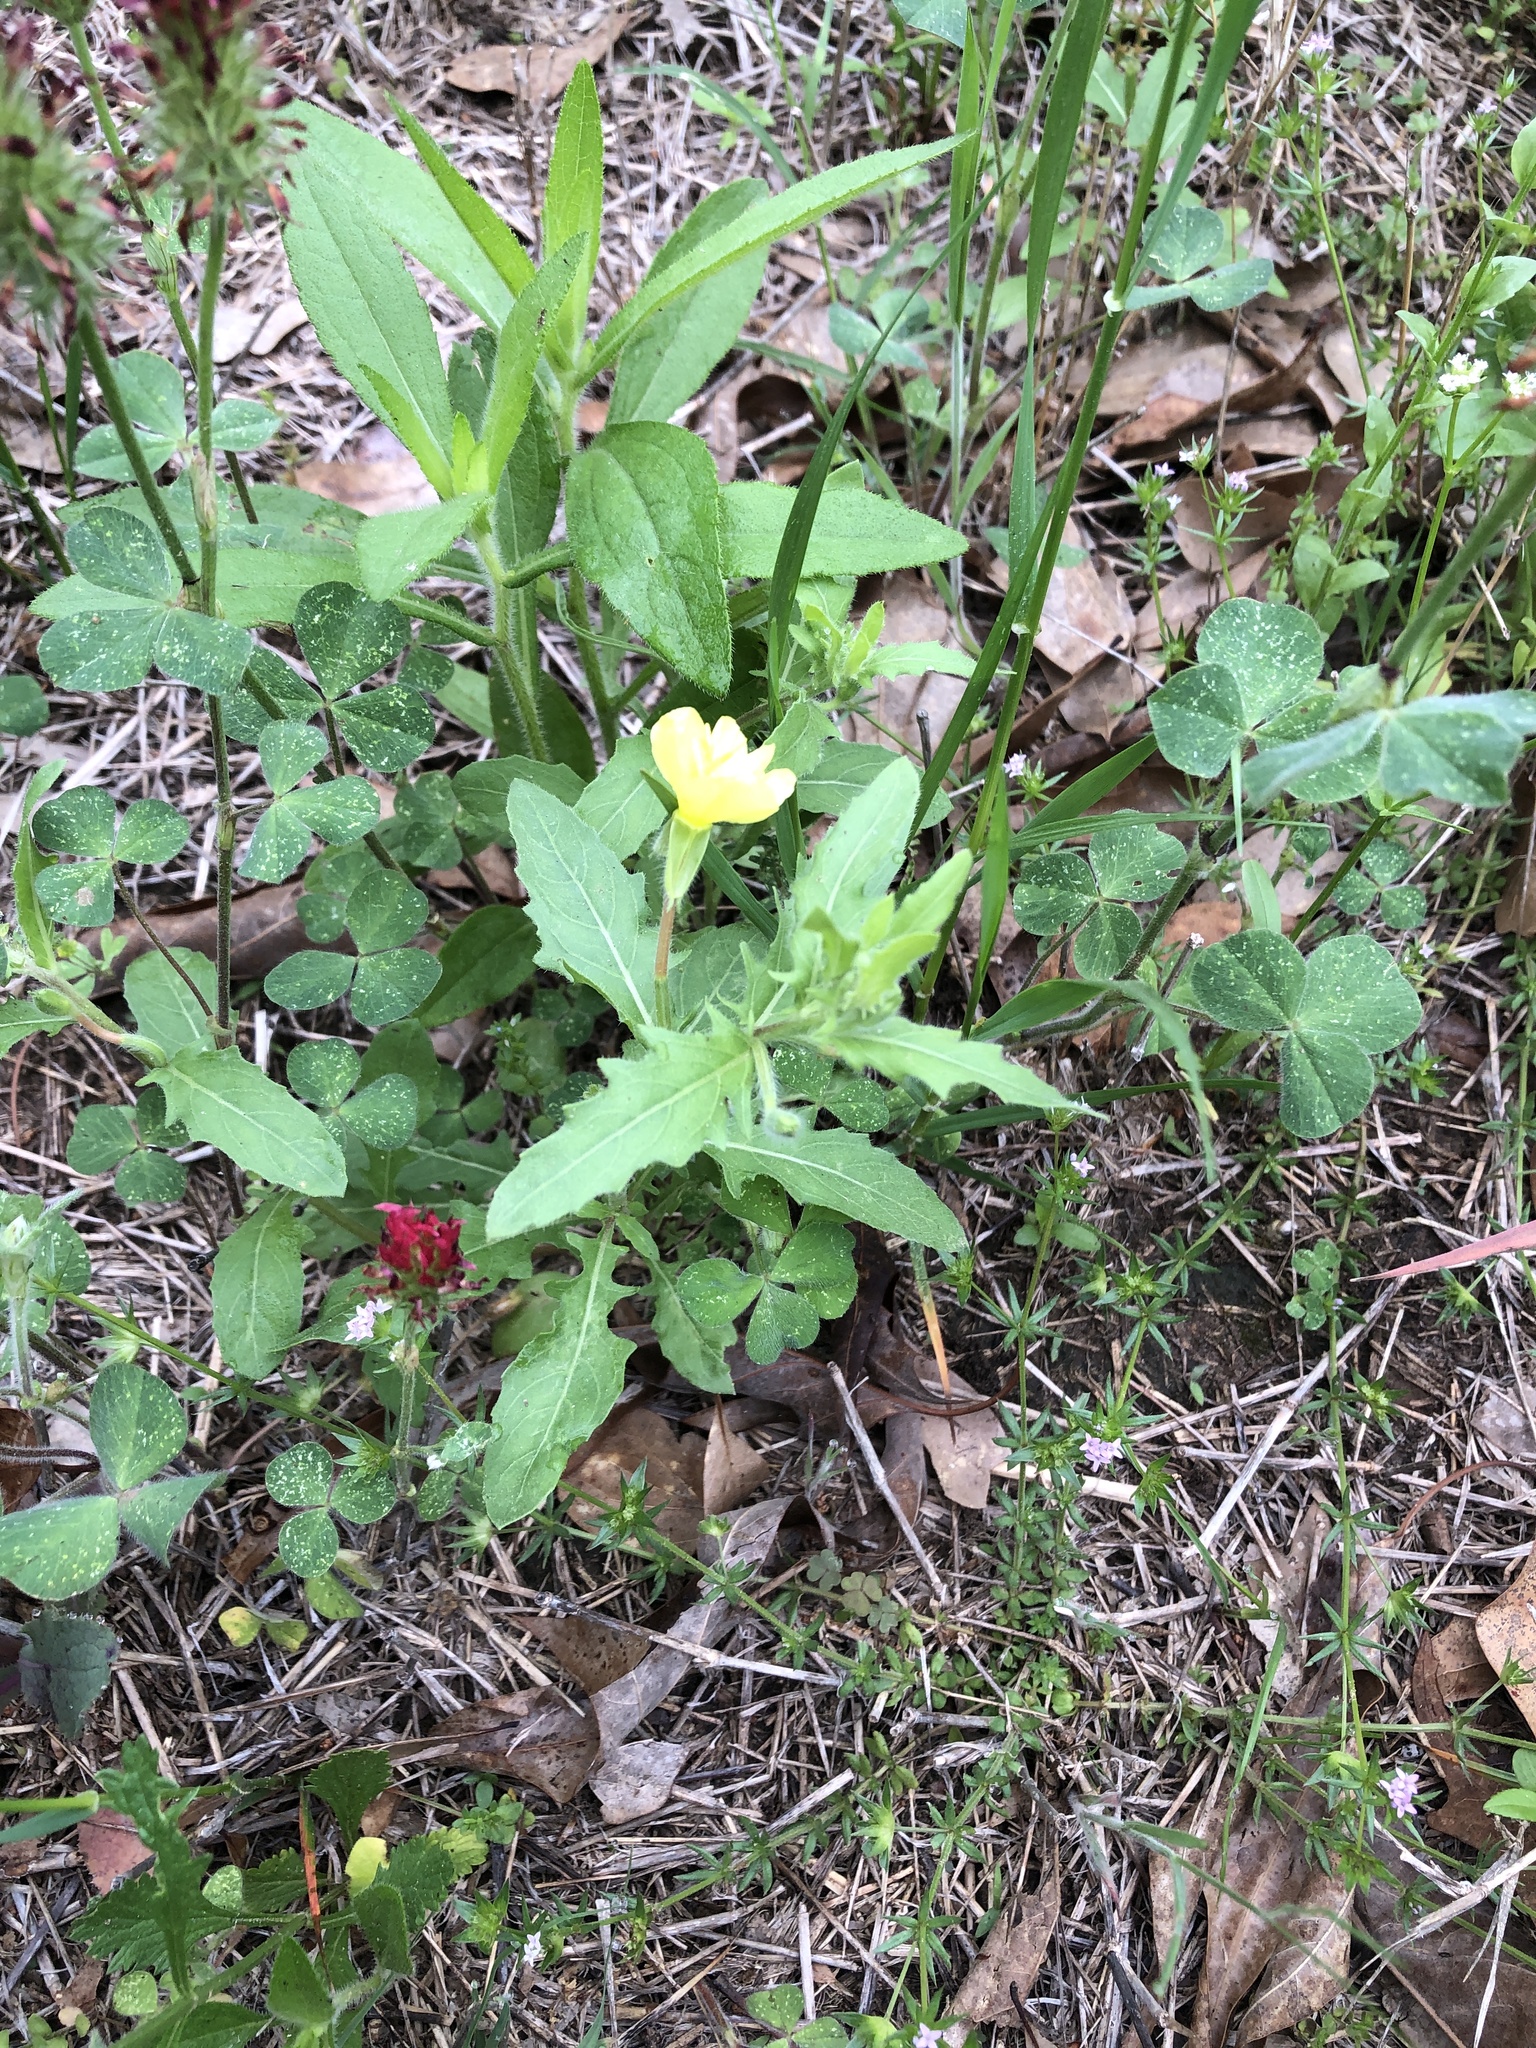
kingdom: Plantae
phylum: Tracheophyta
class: Magnoliopsida
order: Myrtales
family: Onagraceae
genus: Oenothera
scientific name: Oenothera laciniata
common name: Cut-leaved evening-primrose
